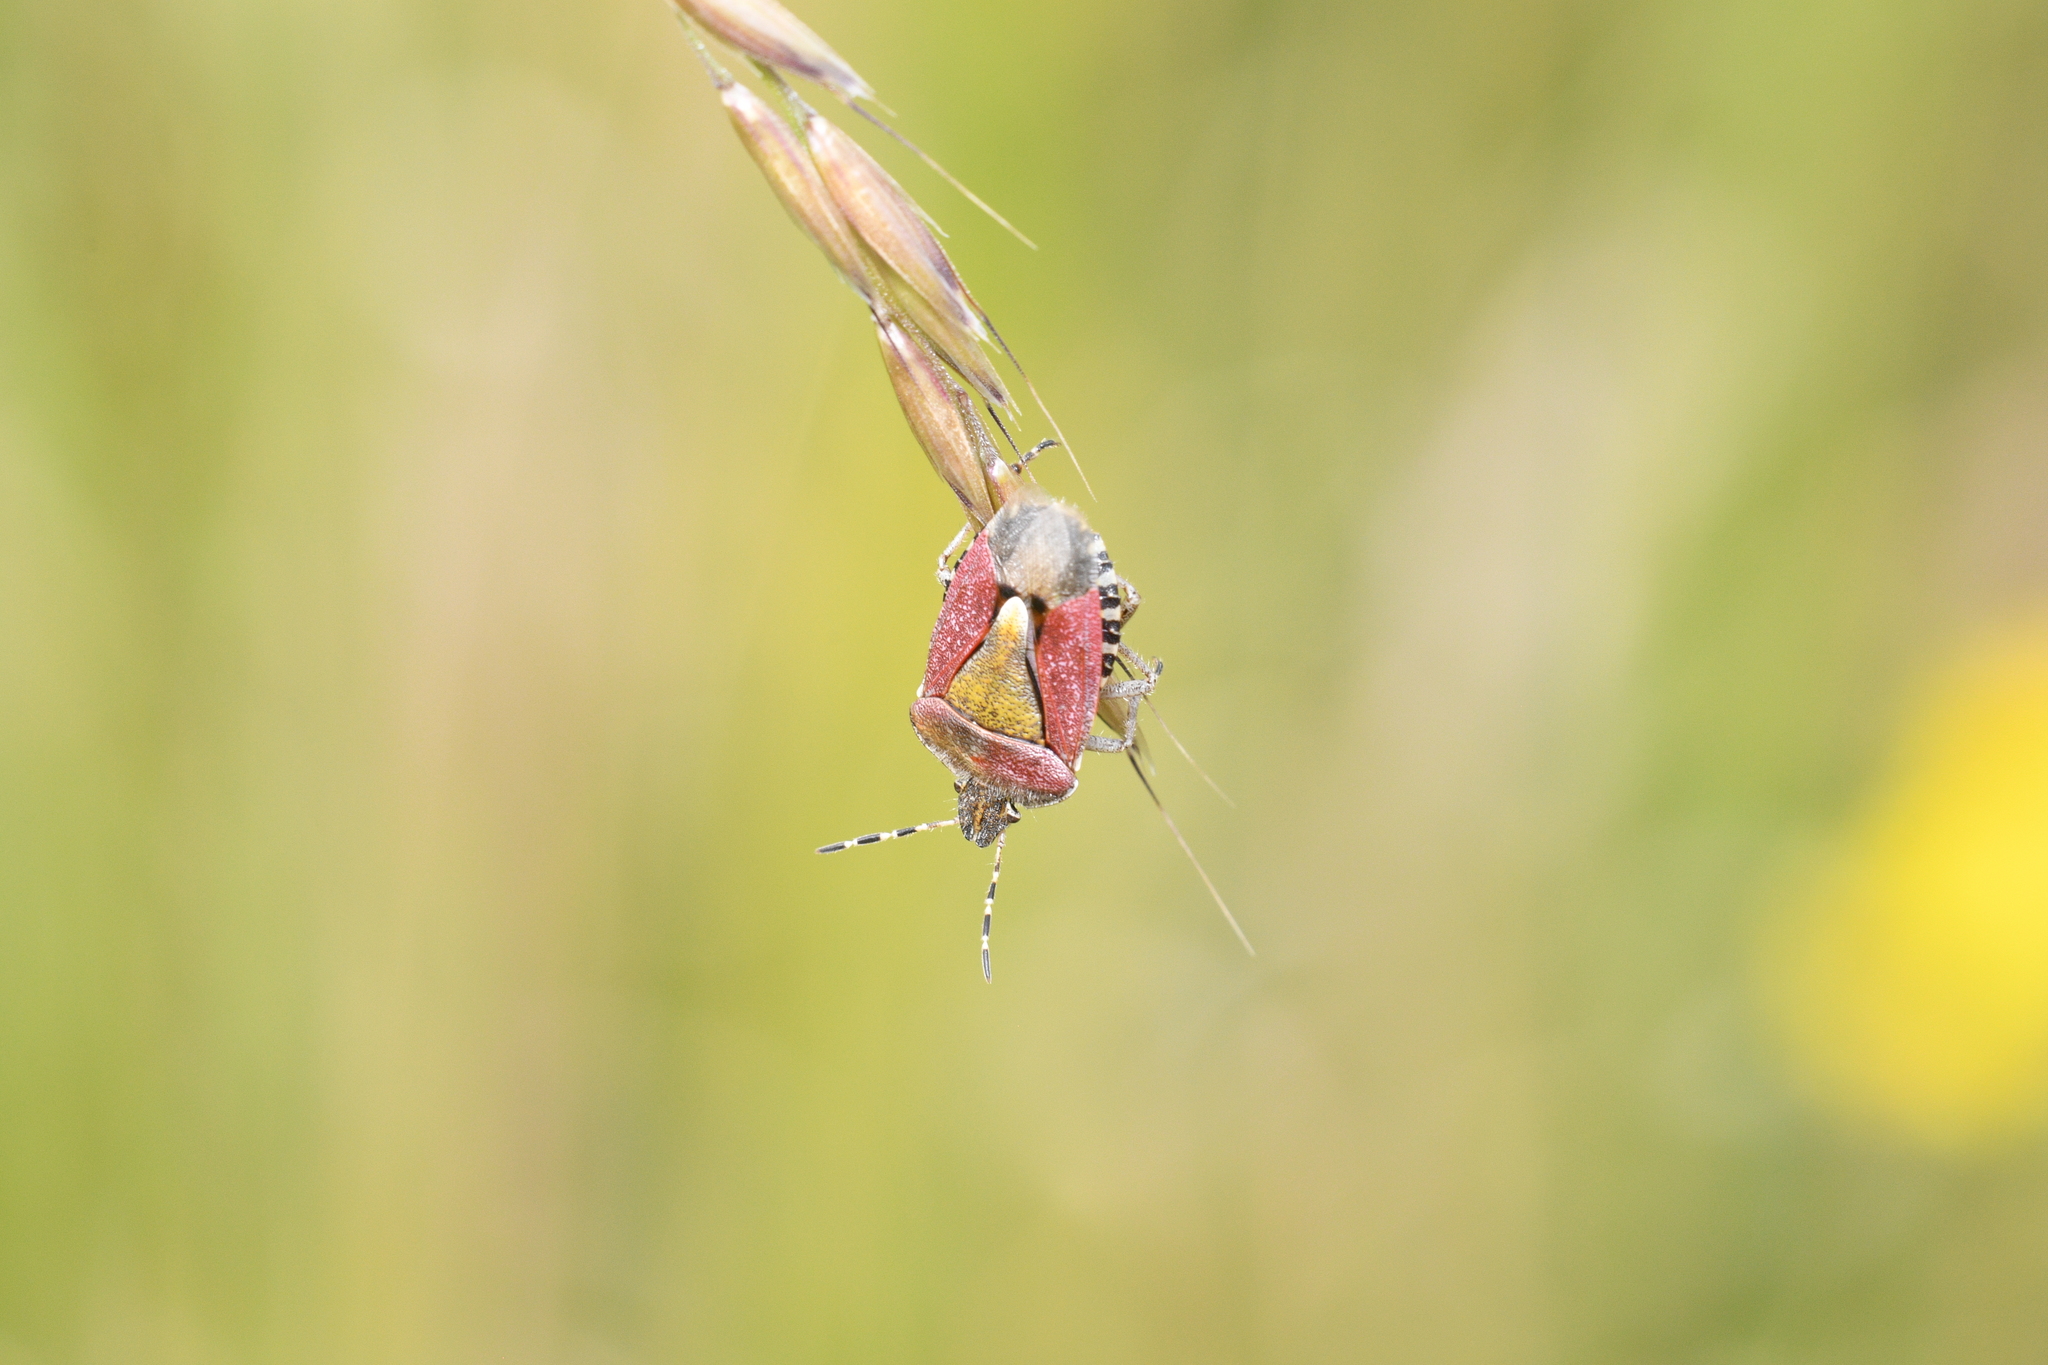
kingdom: Animalia
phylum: Arthropoda
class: Insecta
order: Hemiptera
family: Pentatomidae
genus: Dolycoris
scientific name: Dolycoris baccarum
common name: Sloe bug
